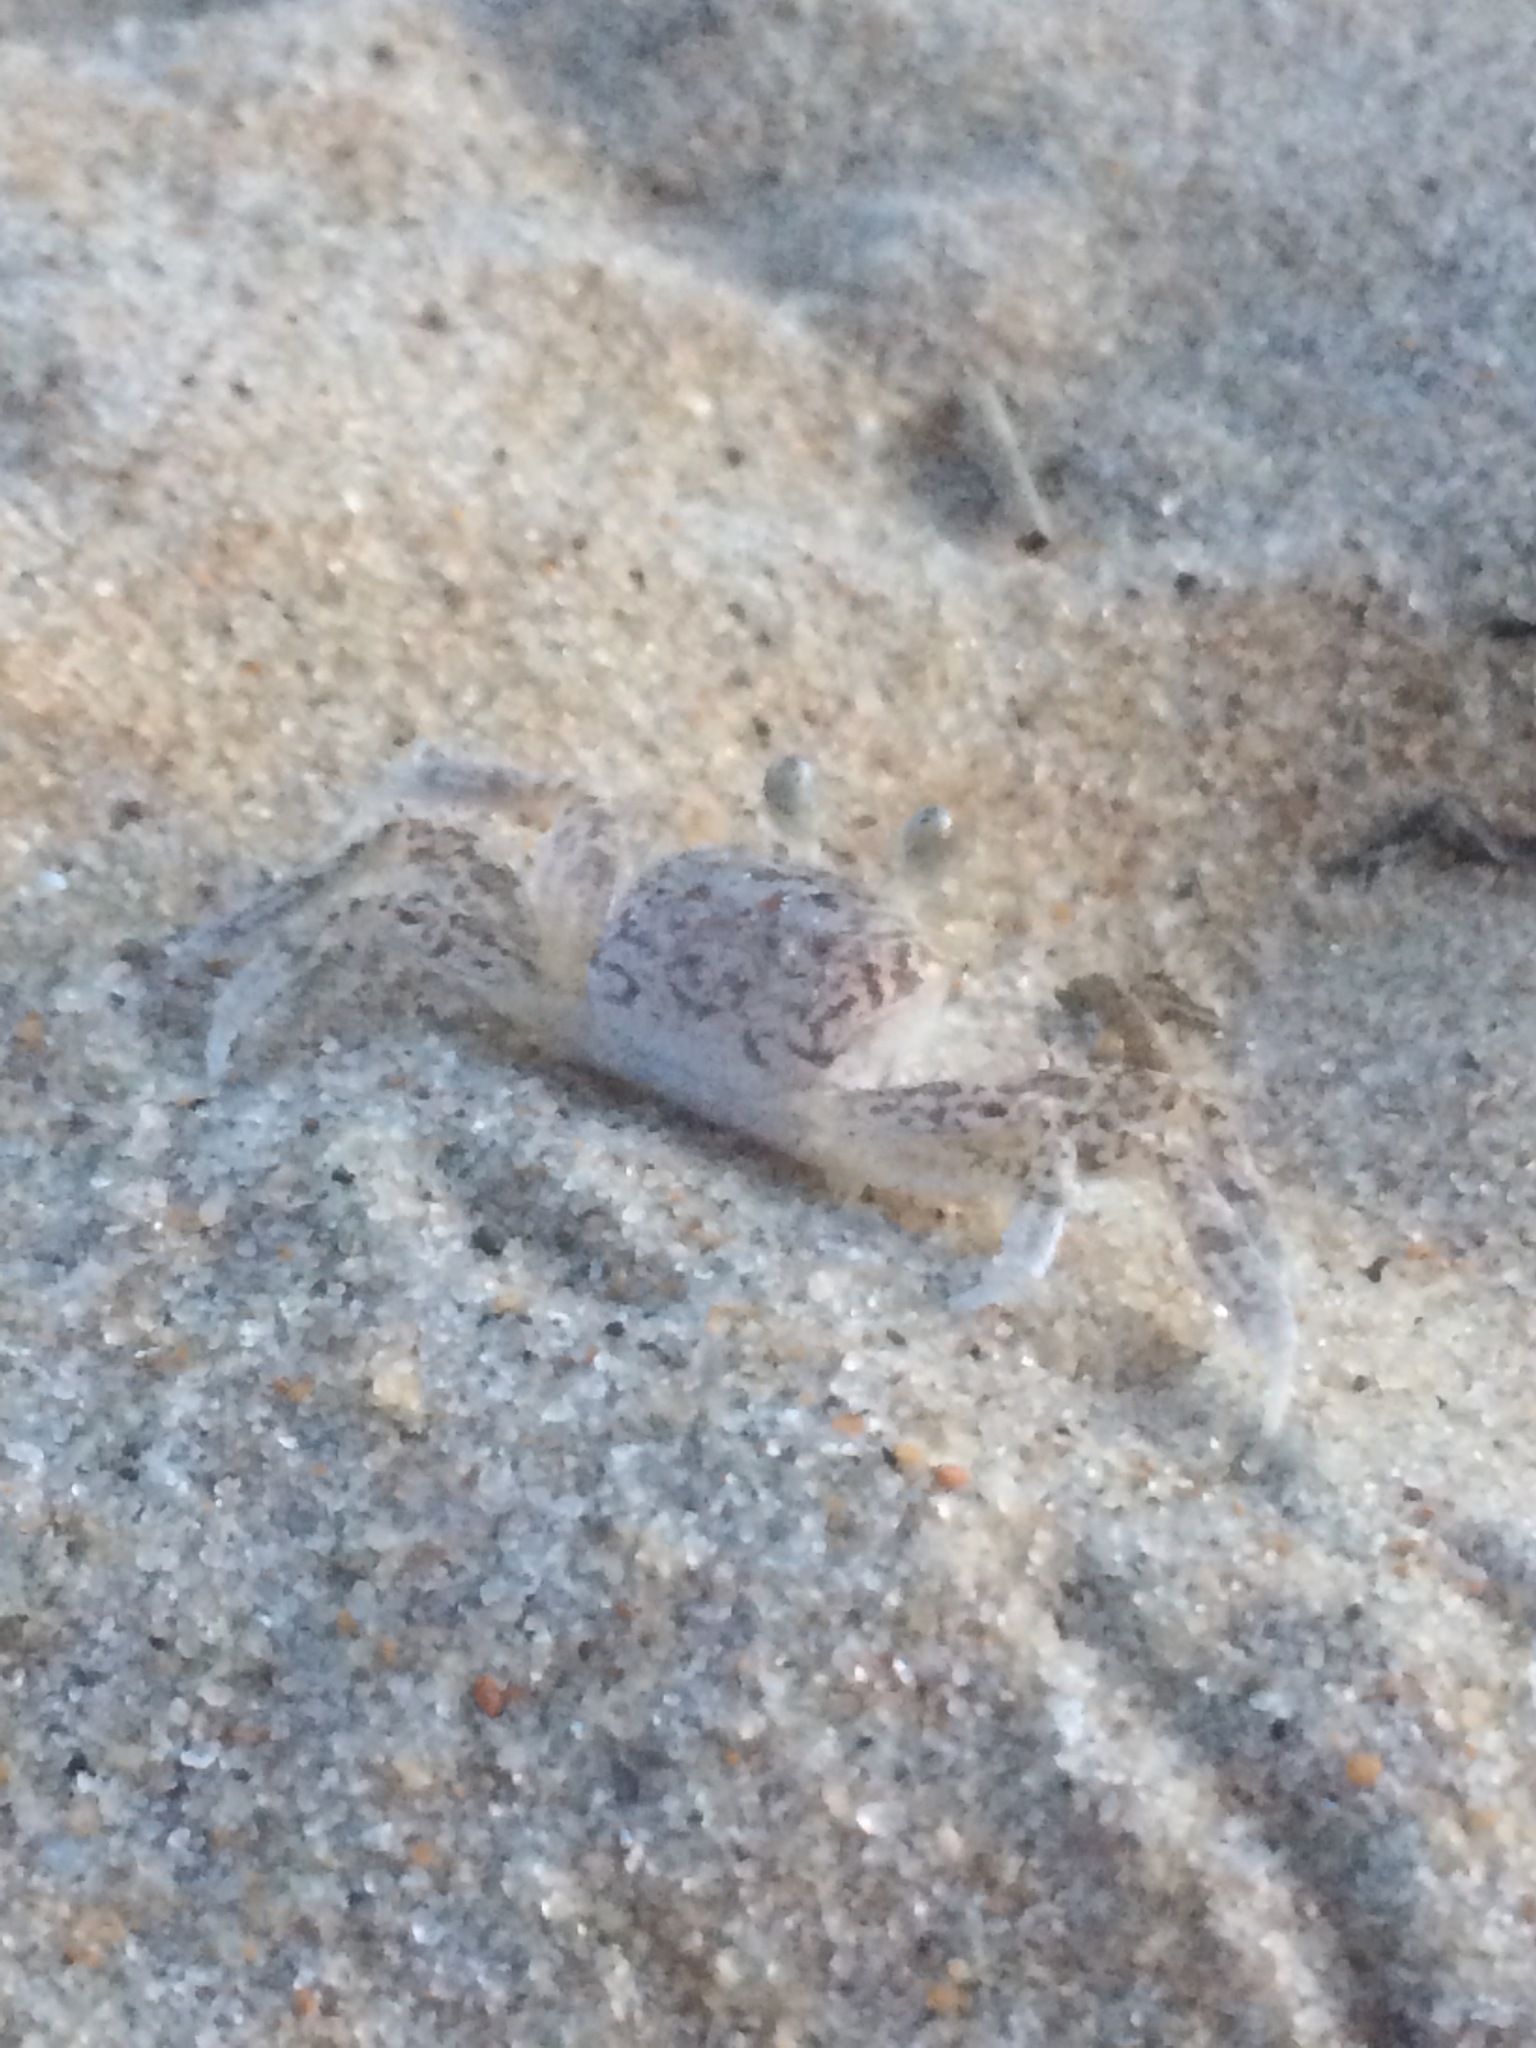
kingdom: Animalia
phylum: Arthropoda
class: Malacostraca
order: Decapoda
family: Ocypodidae
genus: Ocypode
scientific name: Ocypode quadrata
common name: Ghost crab
